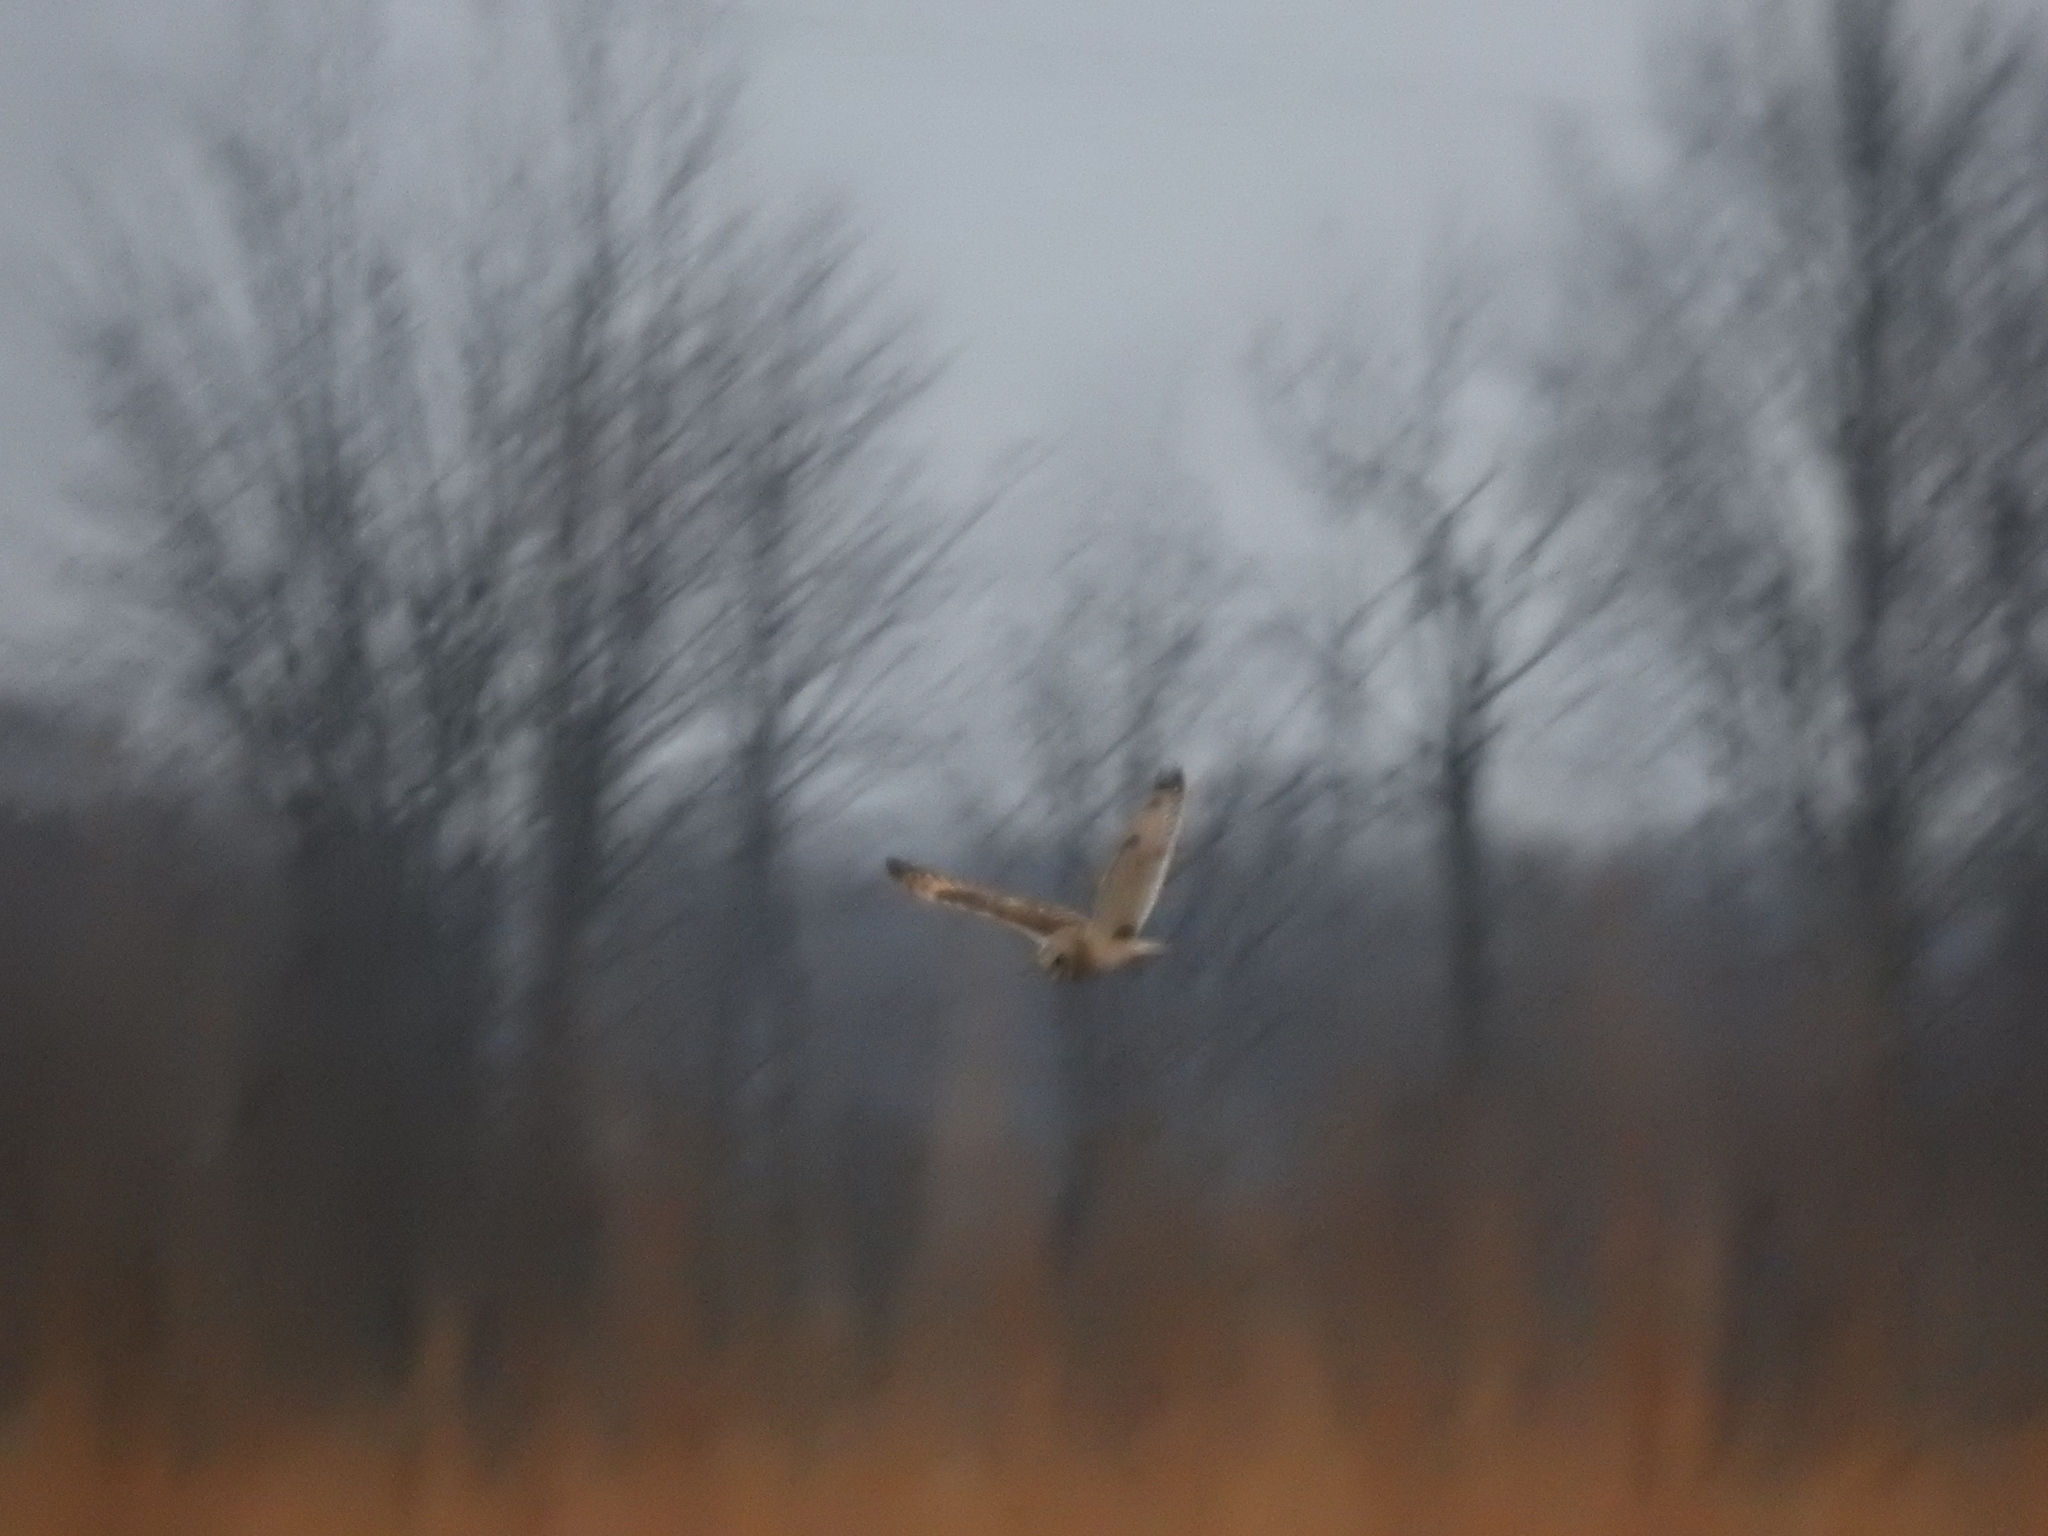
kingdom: Animalia
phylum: Chordata
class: Aves
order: Strigiformes
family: Strigidae
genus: Asio
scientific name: Asio flammeus
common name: Short-eared owl
